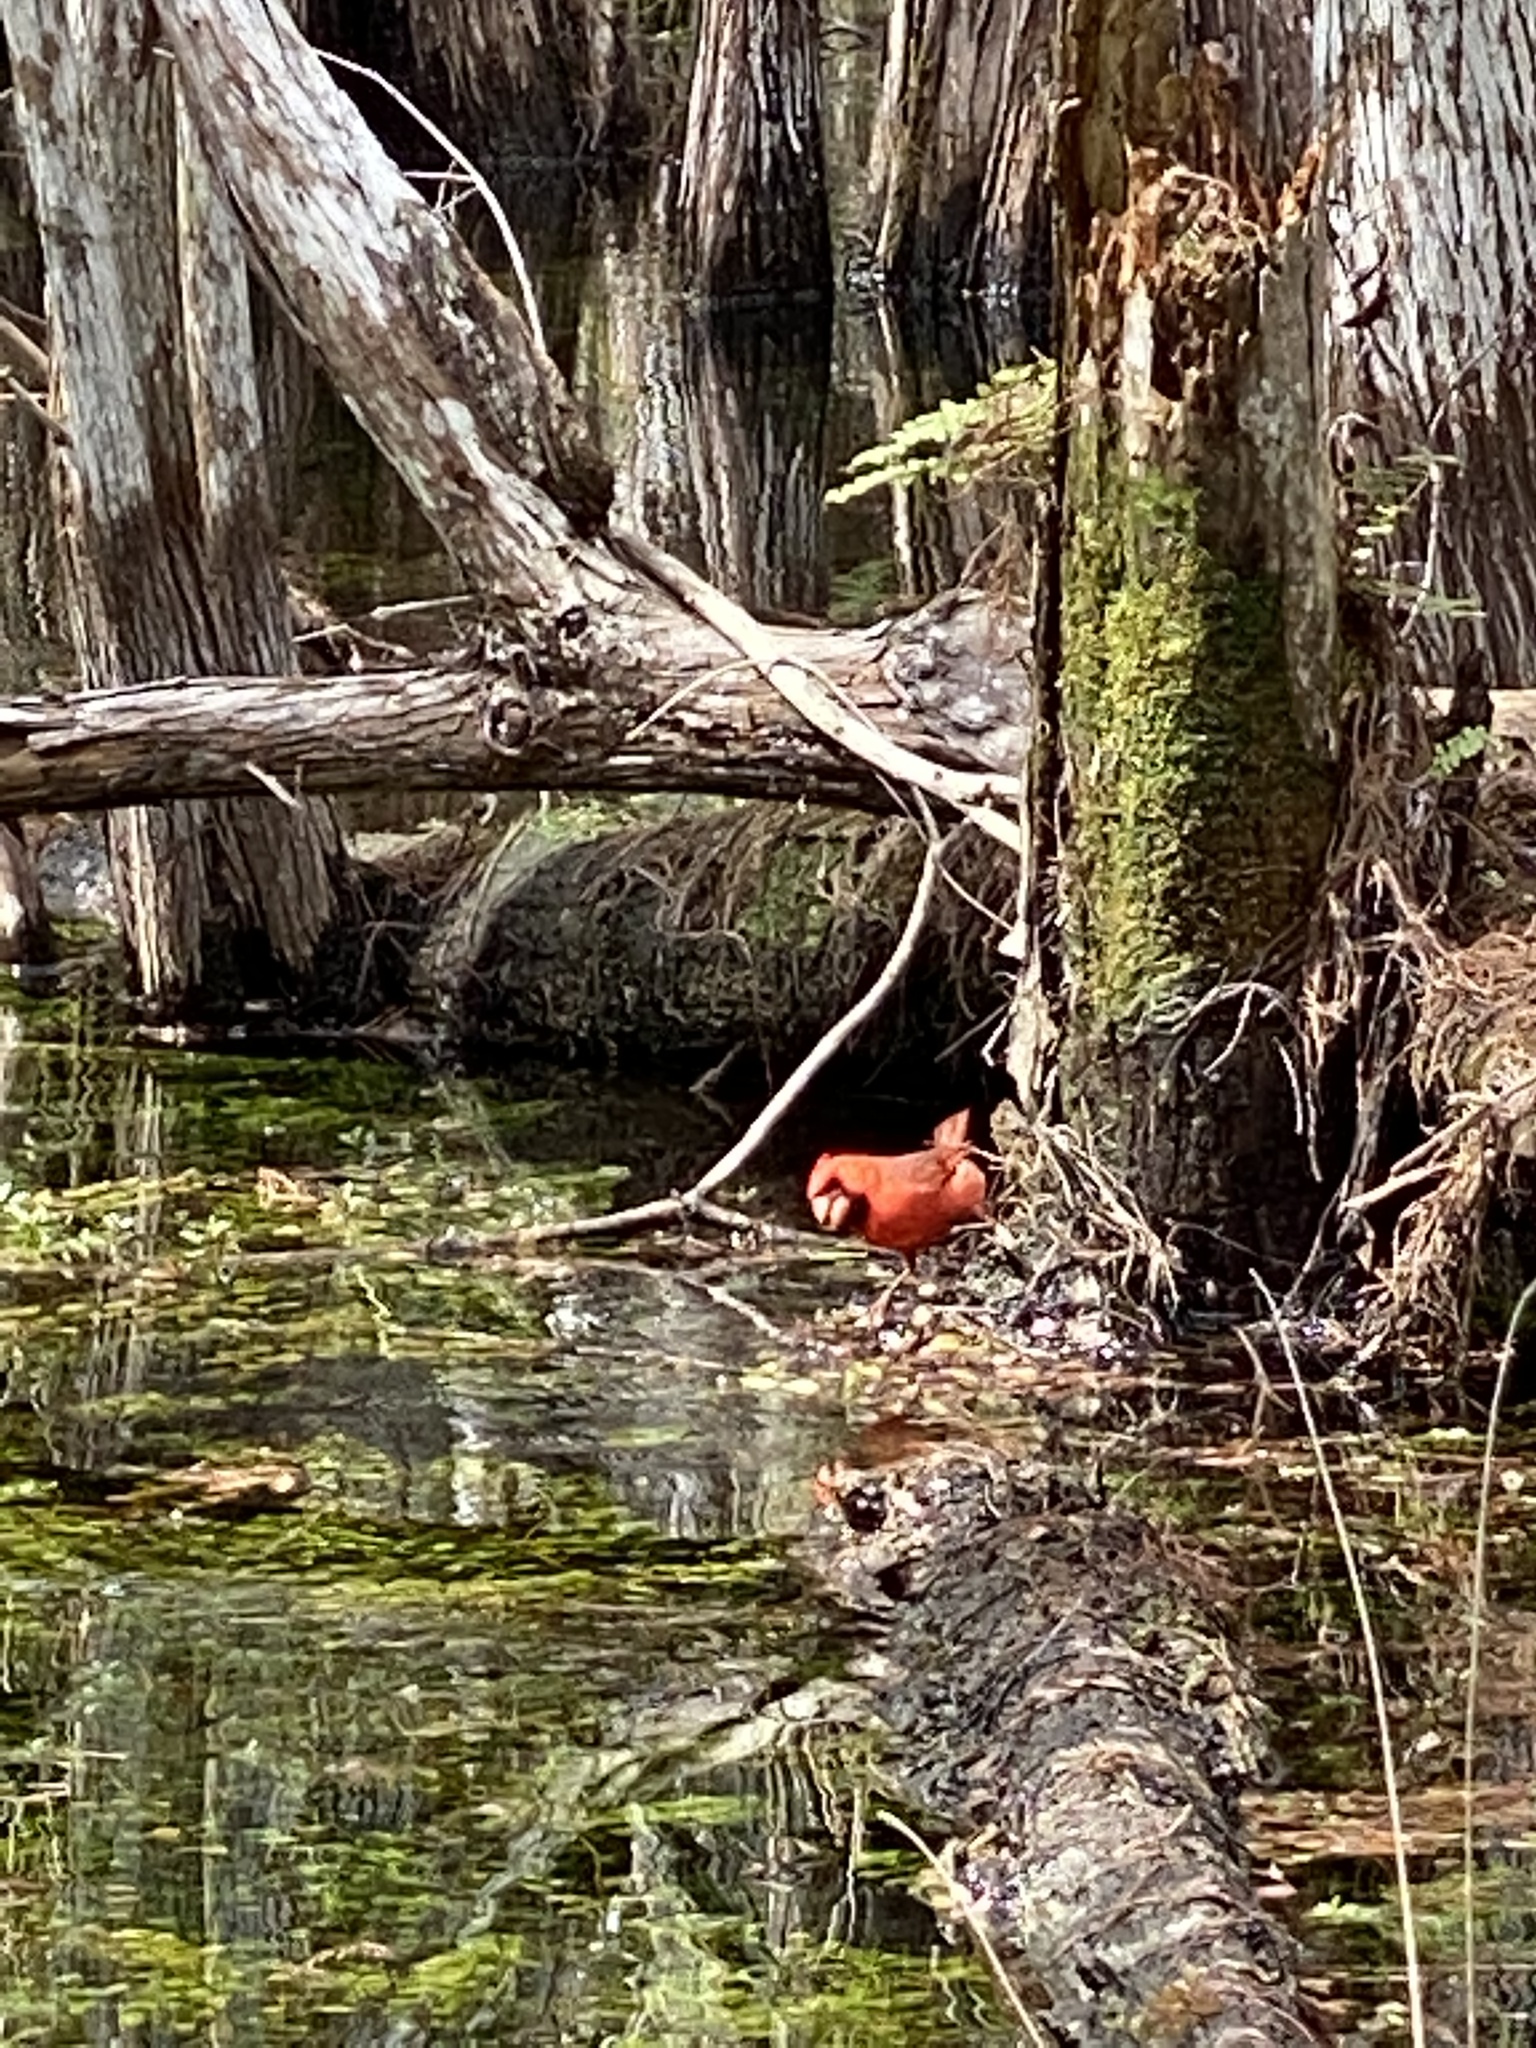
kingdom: Animalia
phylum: Chordata
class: Aves
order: Passeriformes
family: Cardinalidae
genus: Cardinalis
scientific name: Cardinalis cardinalis
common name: Northern cardinal
